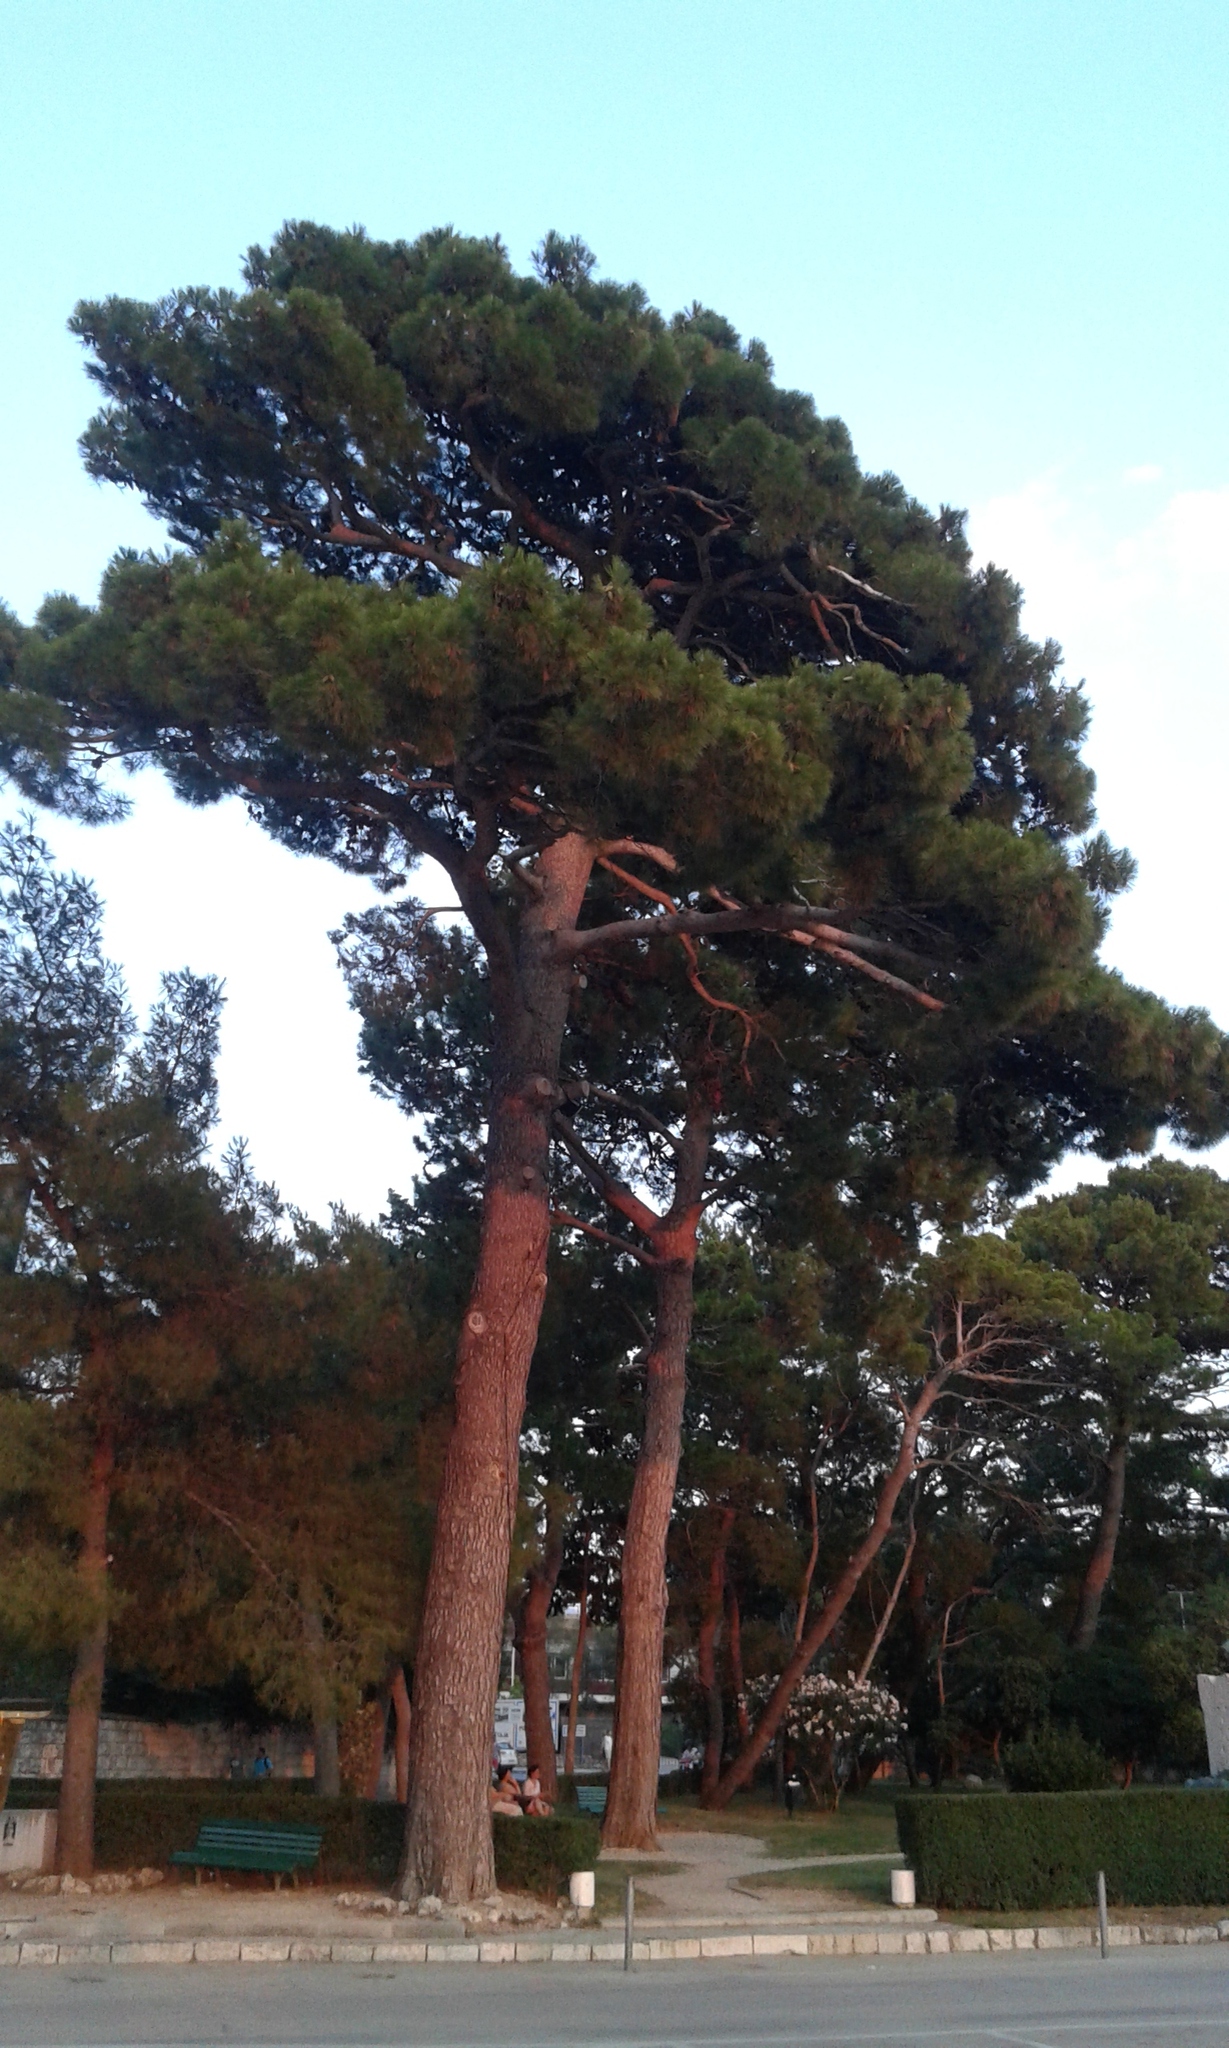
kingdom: Plantae
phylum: Tracheophyta
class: Pinopsida
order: Pinales
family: Pinaceae
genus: Pinus
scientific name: Pinus halepensis
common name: Aleppo pine
